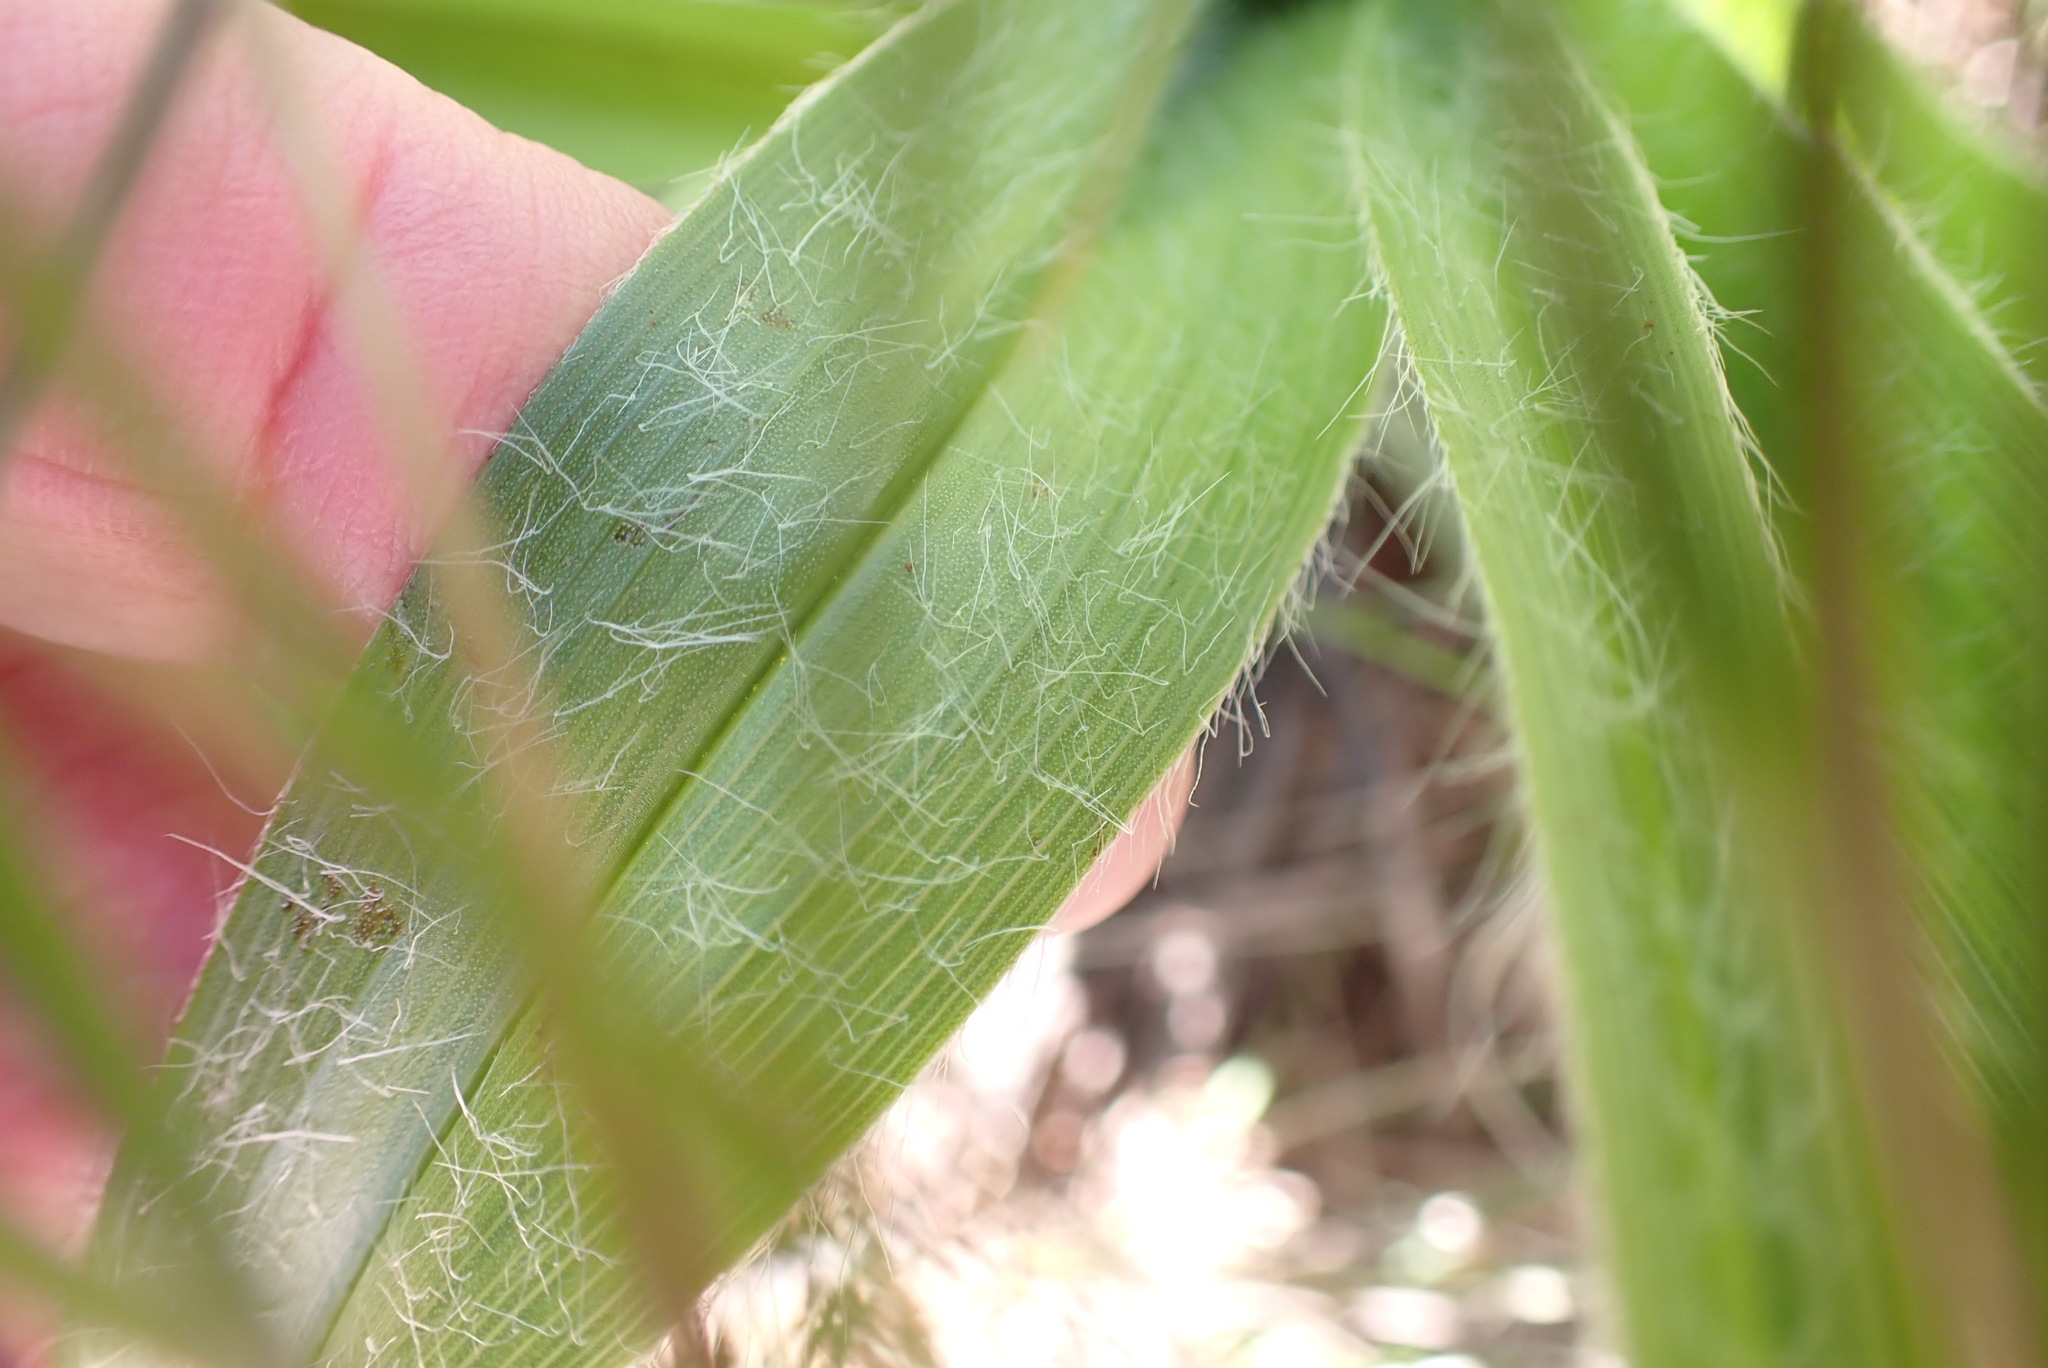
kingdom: Plantae
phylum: Tracheophyta
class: Liliopsida
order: Asparagales
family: Hypoxidaceae
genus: Hypoxis
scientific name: Hypoxis hemerocallidea
